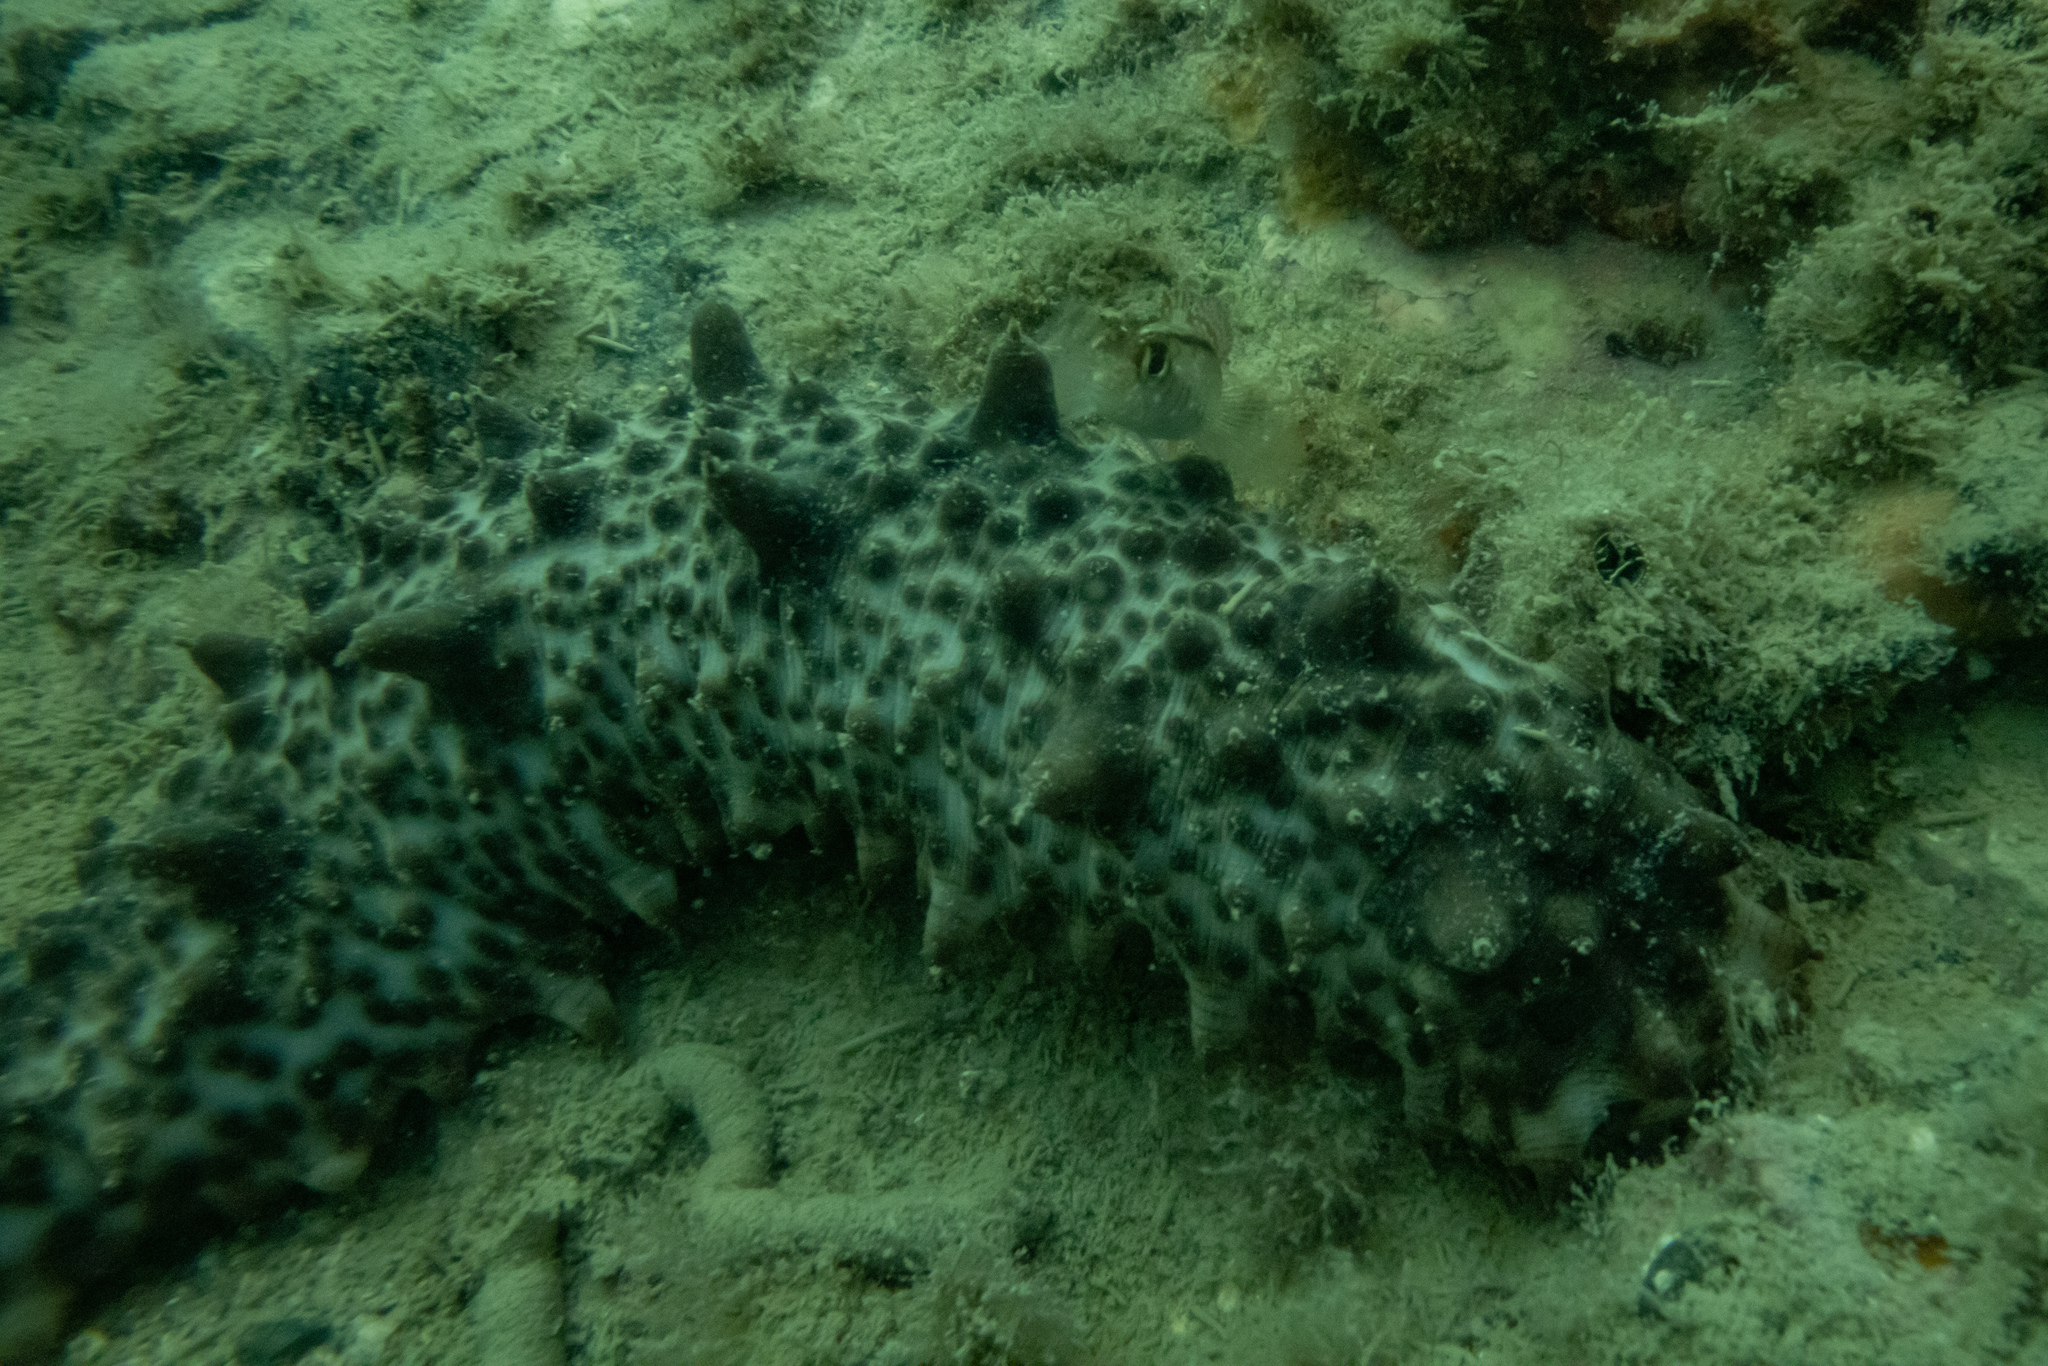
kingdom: Animalia
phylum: Echinodermata
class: Holothuroidea
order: Synallactida
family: Stichopodidae
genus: Australostichopus
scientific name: Australostichopus mollis
